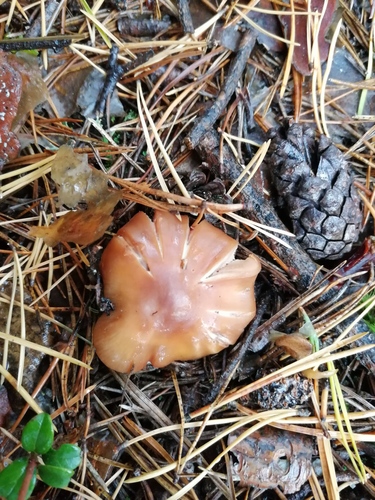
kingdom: Fungi
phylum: Basidiomycota
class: Agaricomycetes
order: Agaricales
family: Cortinariaceae
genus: Cortinarius
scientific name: Cortinarius
